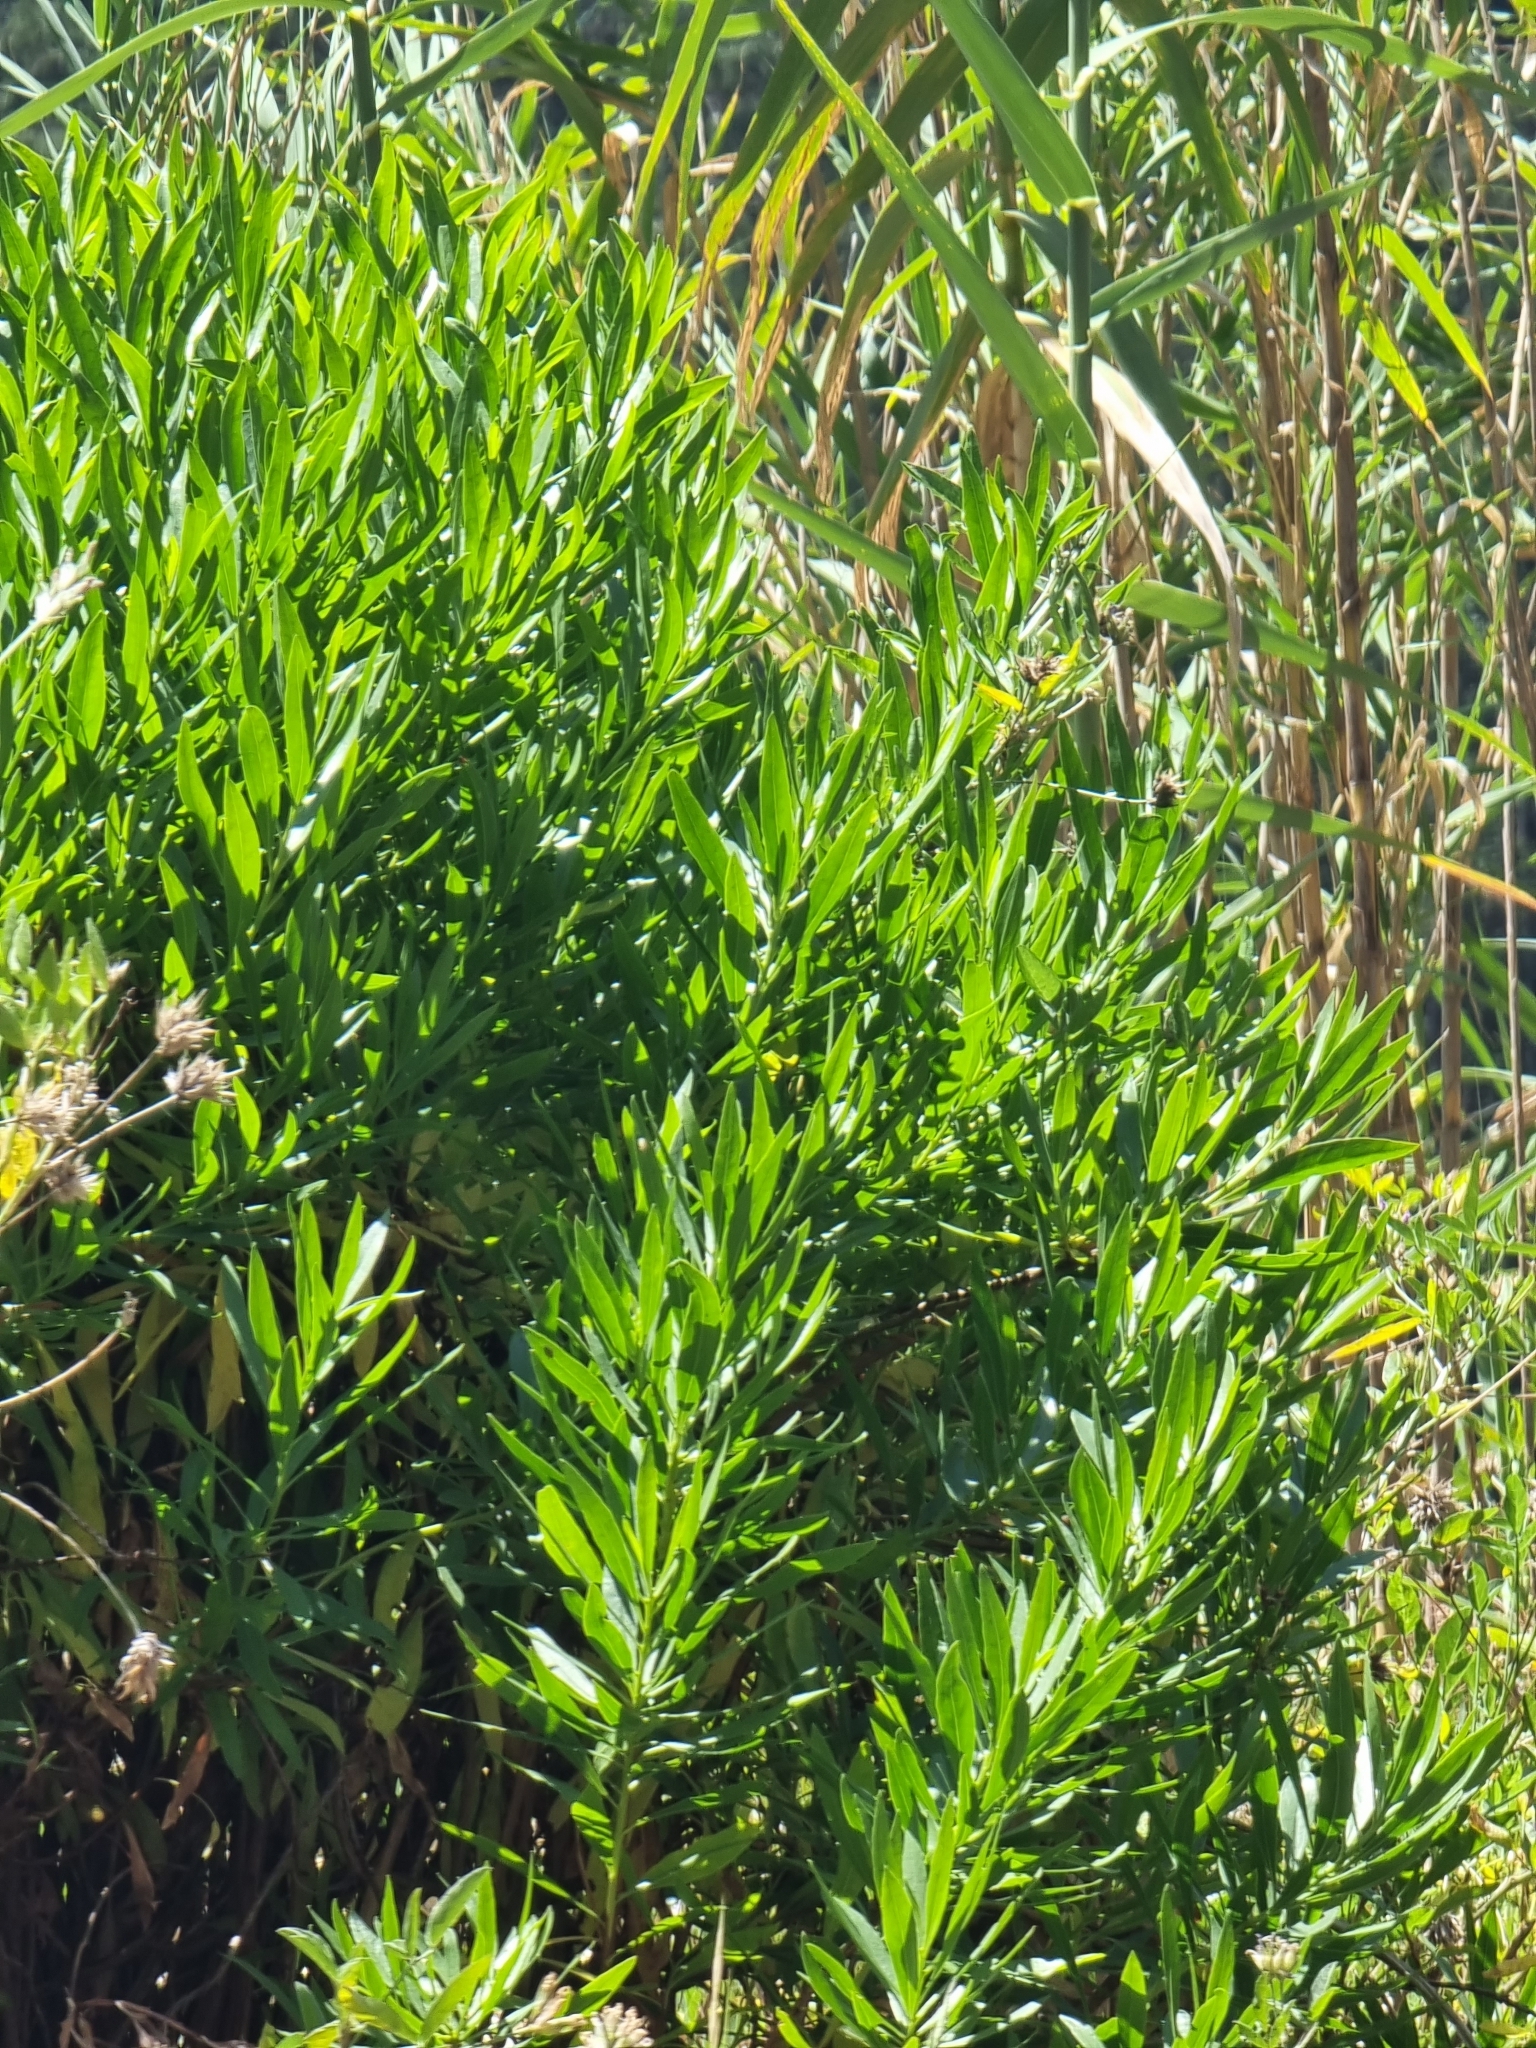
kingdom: Plantae
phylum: Tracheophyta
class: Magnoliopsida
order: Lamiales
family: Plantaginaceae
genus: Globularia
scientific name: Globularia salicina
